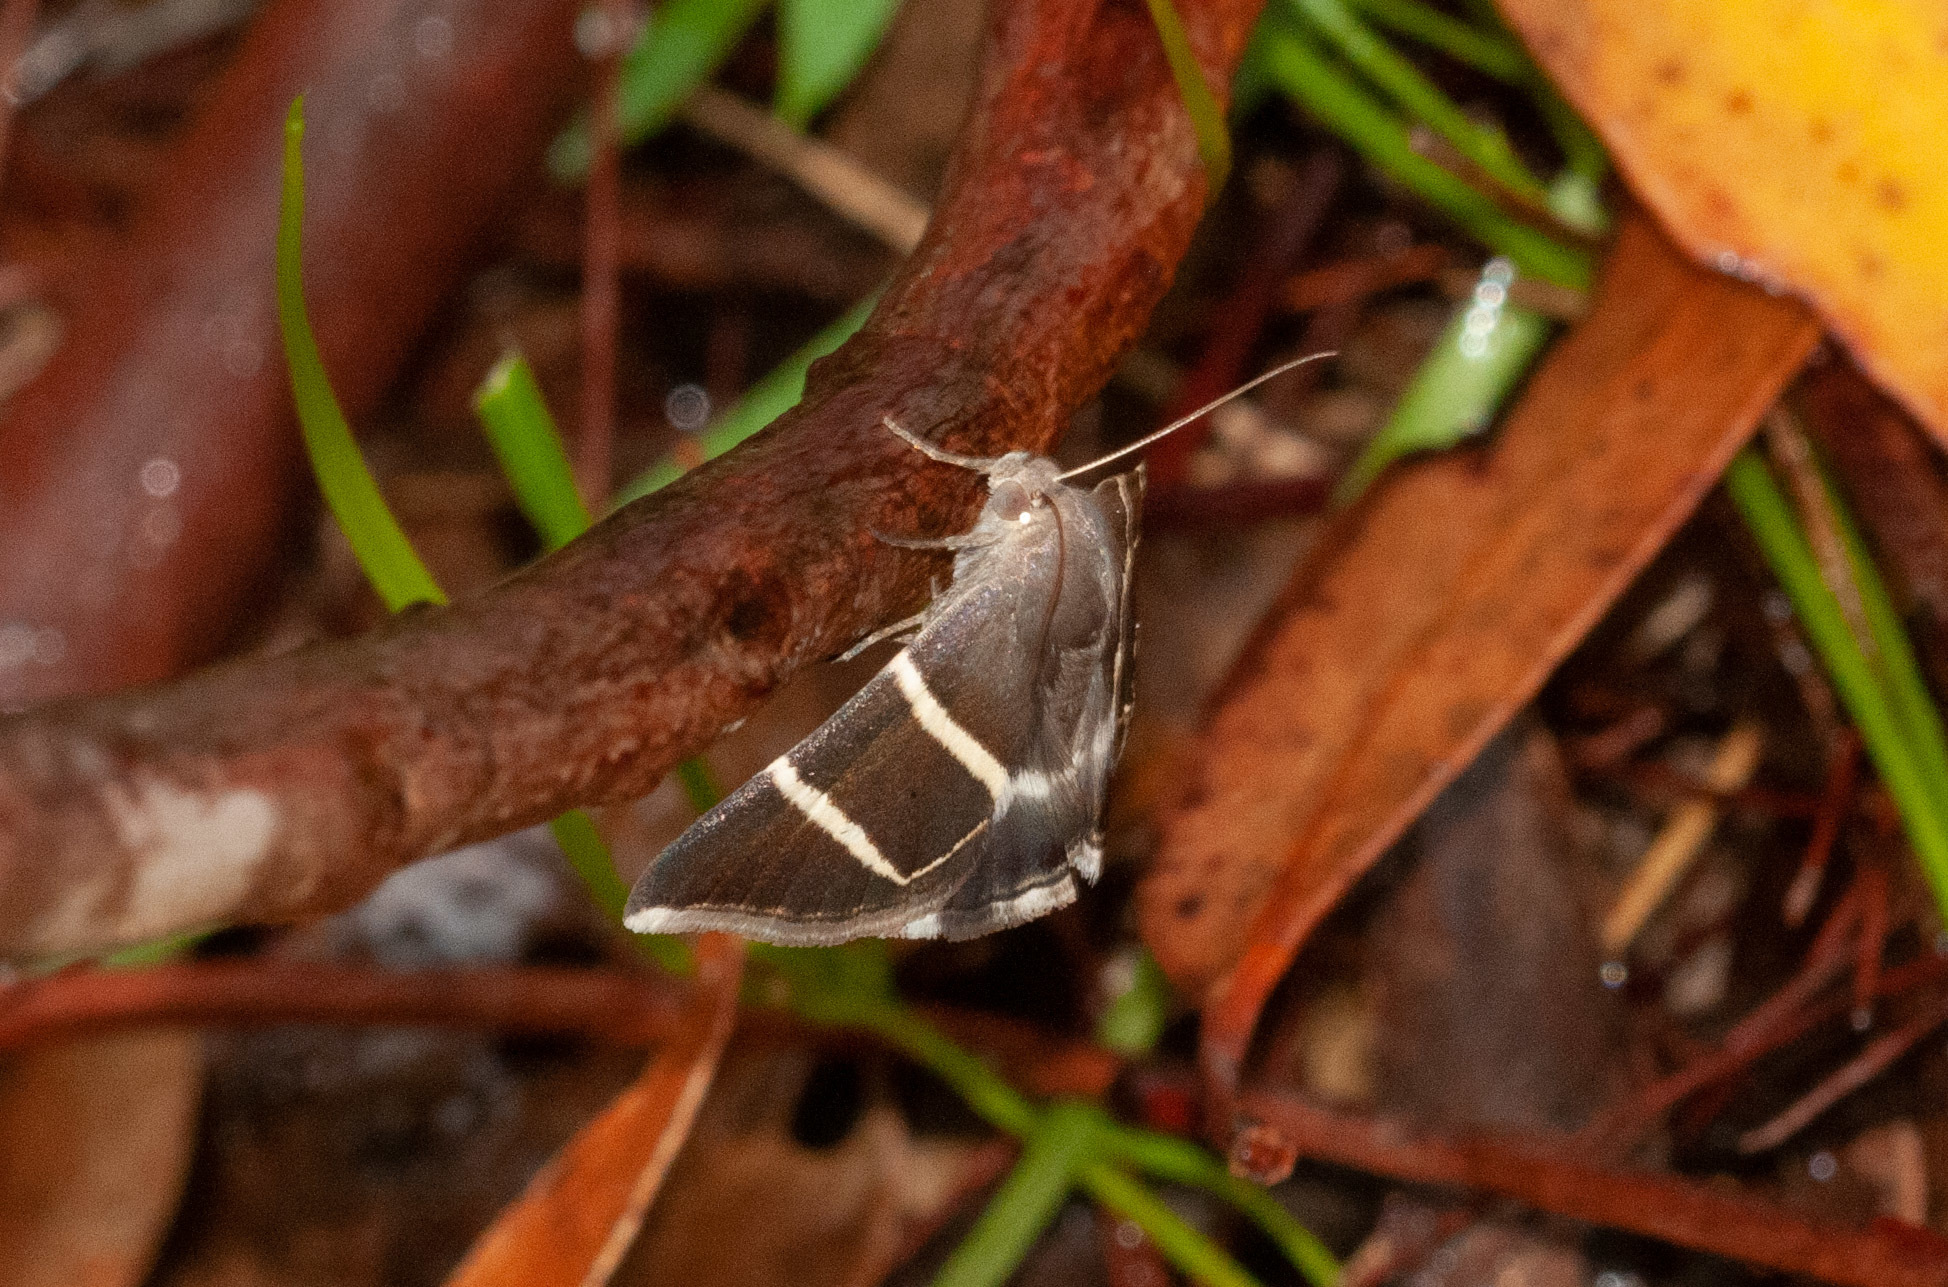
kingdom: Animalia
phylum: Arthropoda
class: Insecta
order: Lepidoptera
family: Erebidae
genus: Grammodes
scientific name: Grammodes justa
